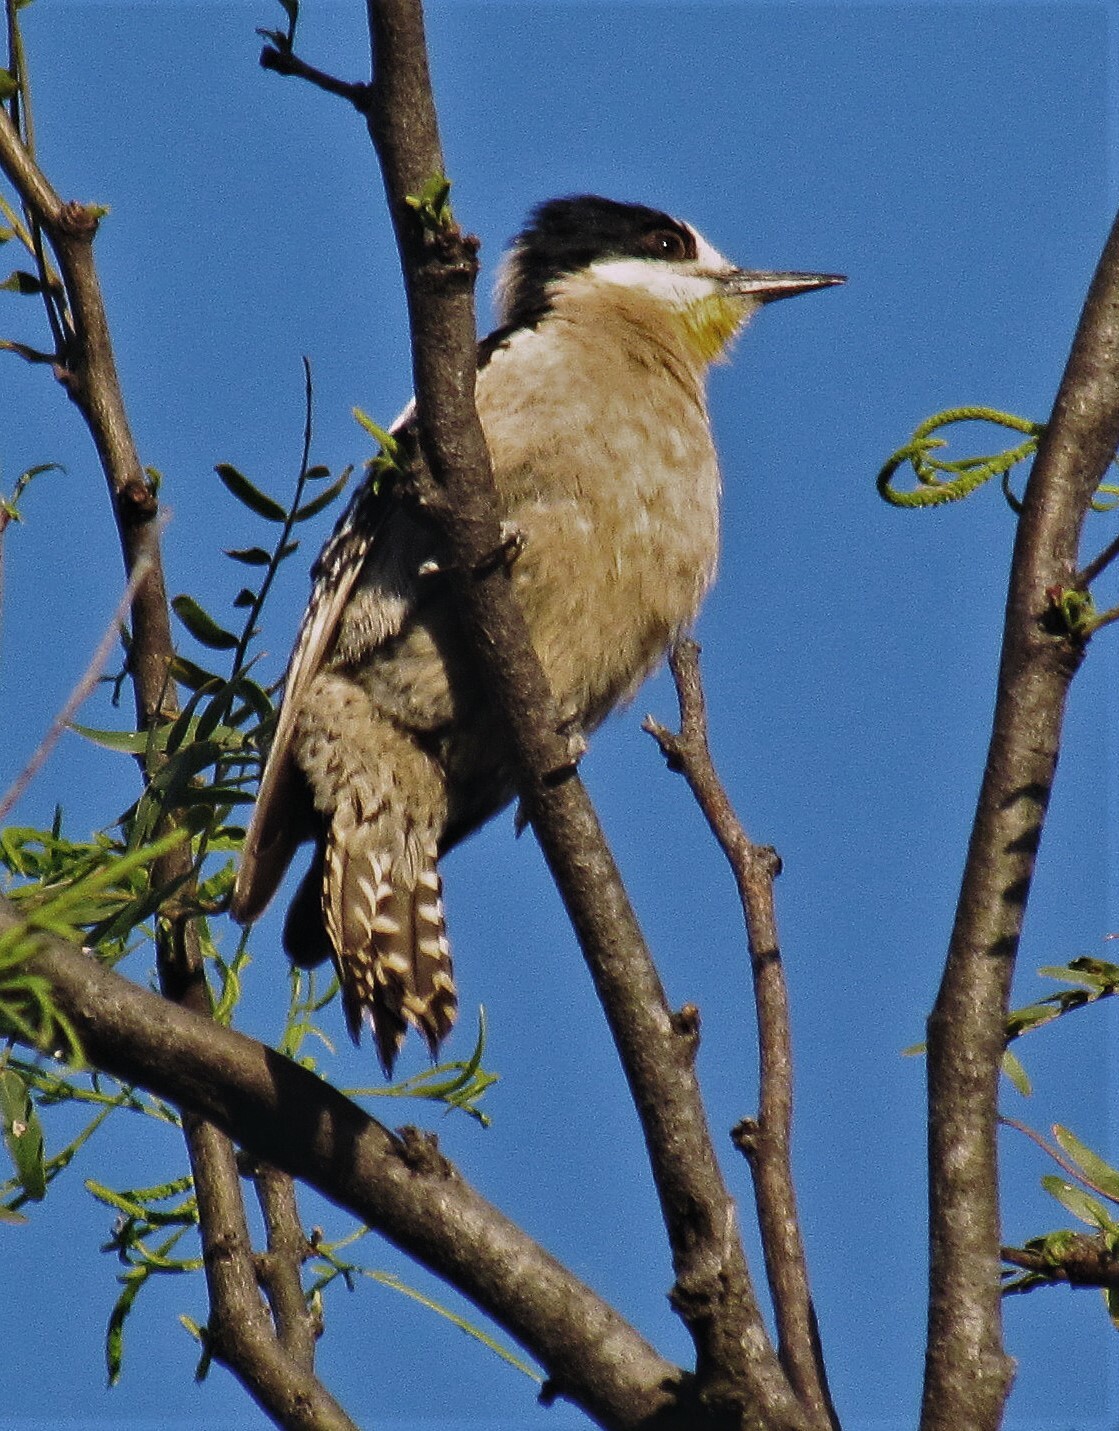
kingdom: Animalia
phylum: Chordata
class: Aves
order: Piciformes
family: Picidae
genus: Melanerpes
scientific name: Melanerpes cactorum
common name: White-fronted woodpecker
